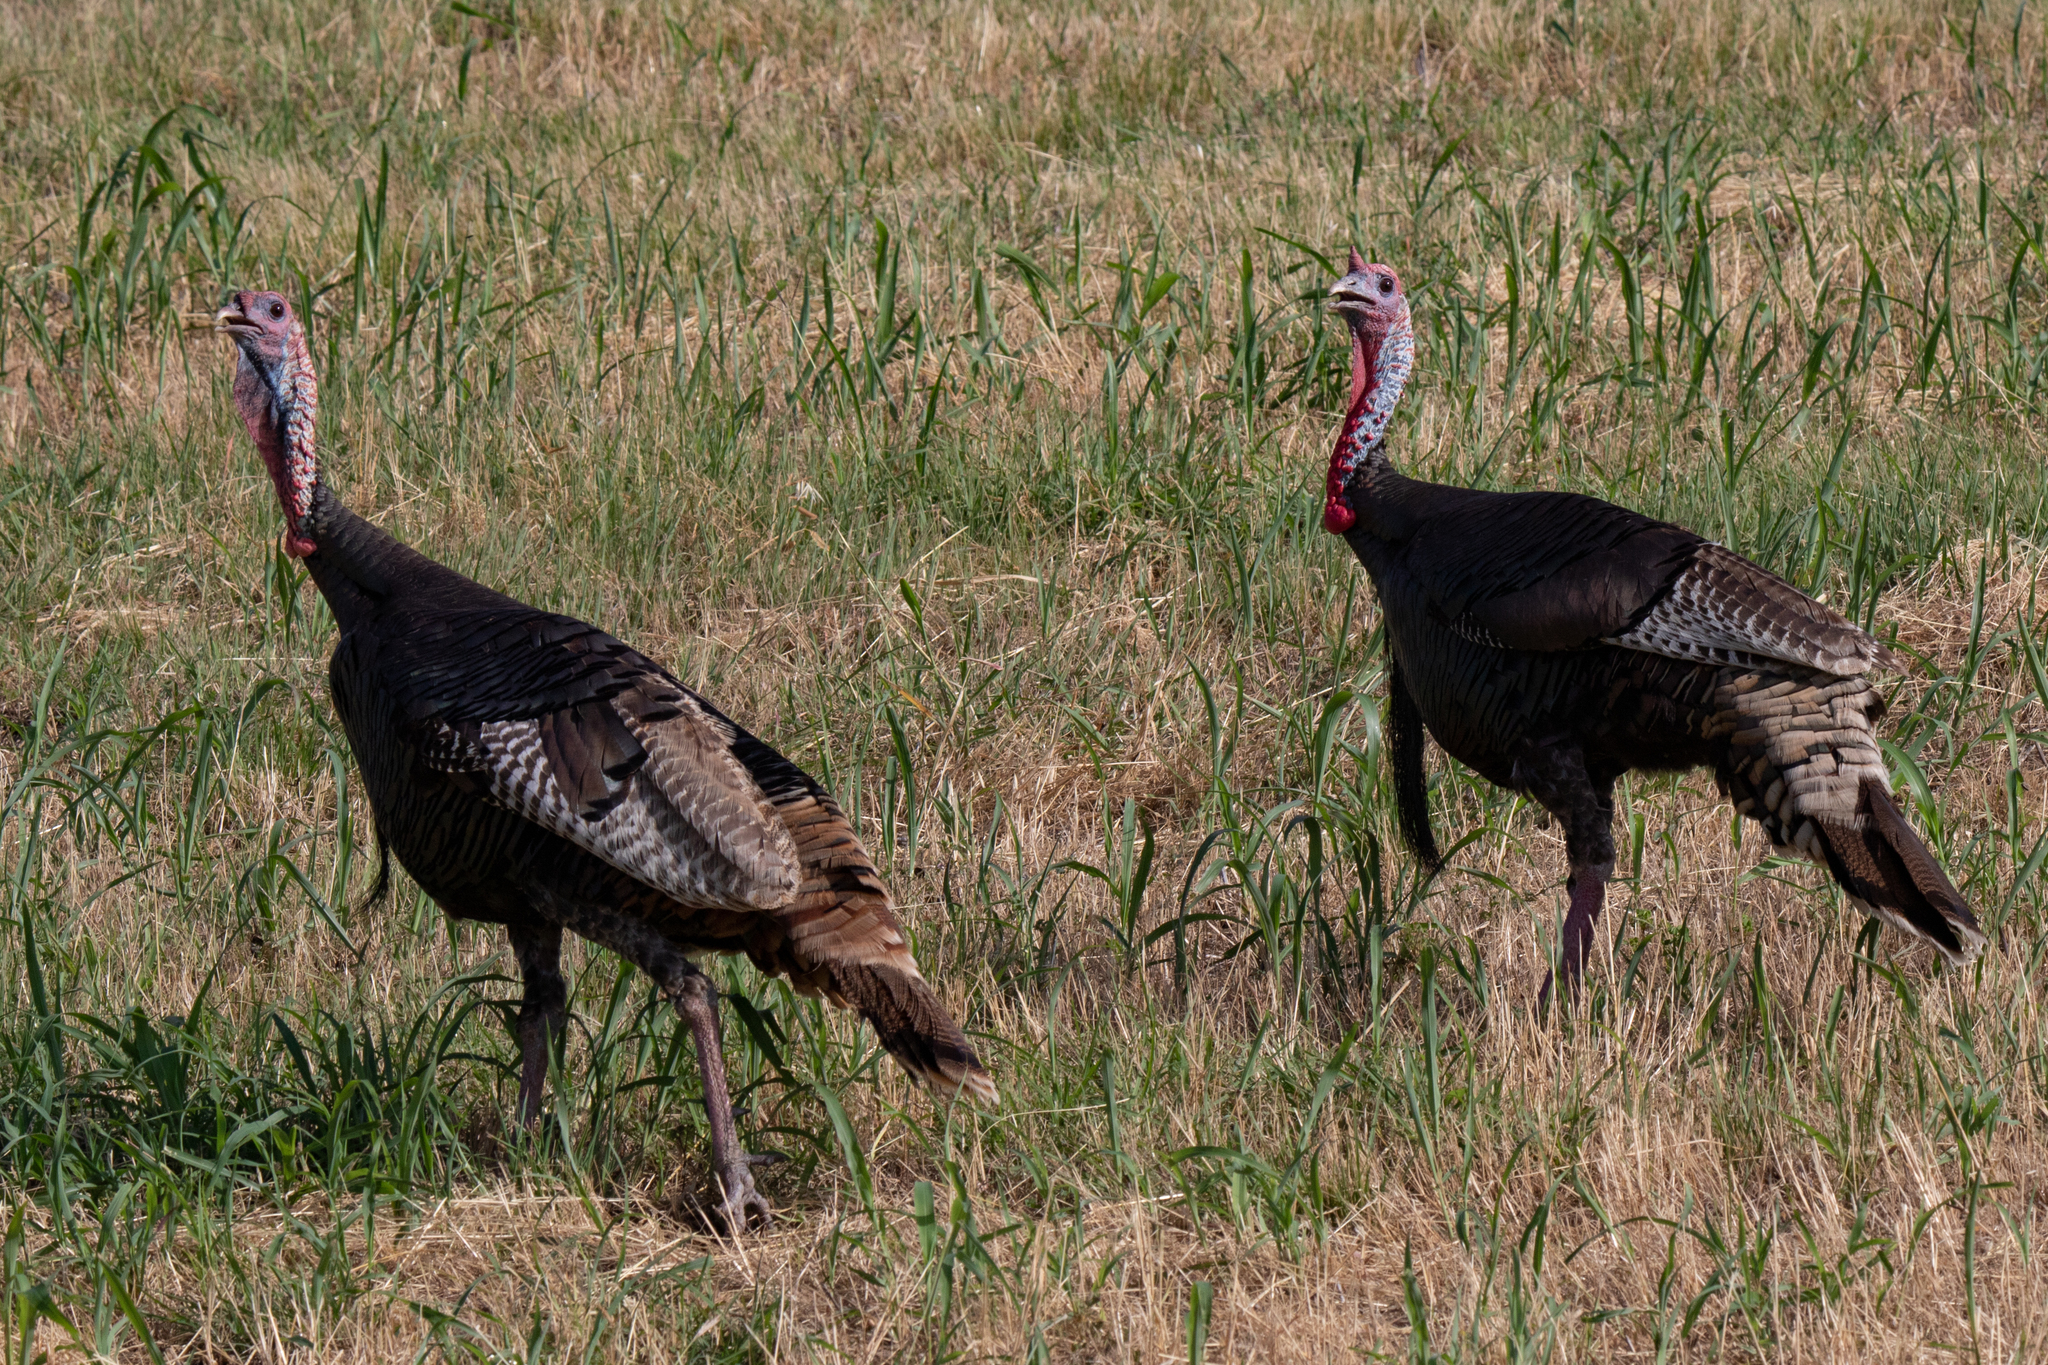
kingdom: Animalia
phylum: Chordata
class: Aves
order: Galliformes
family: Phasianidae
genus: Meleagris
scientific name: Meleagris gallopavo
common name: Wild turkey
